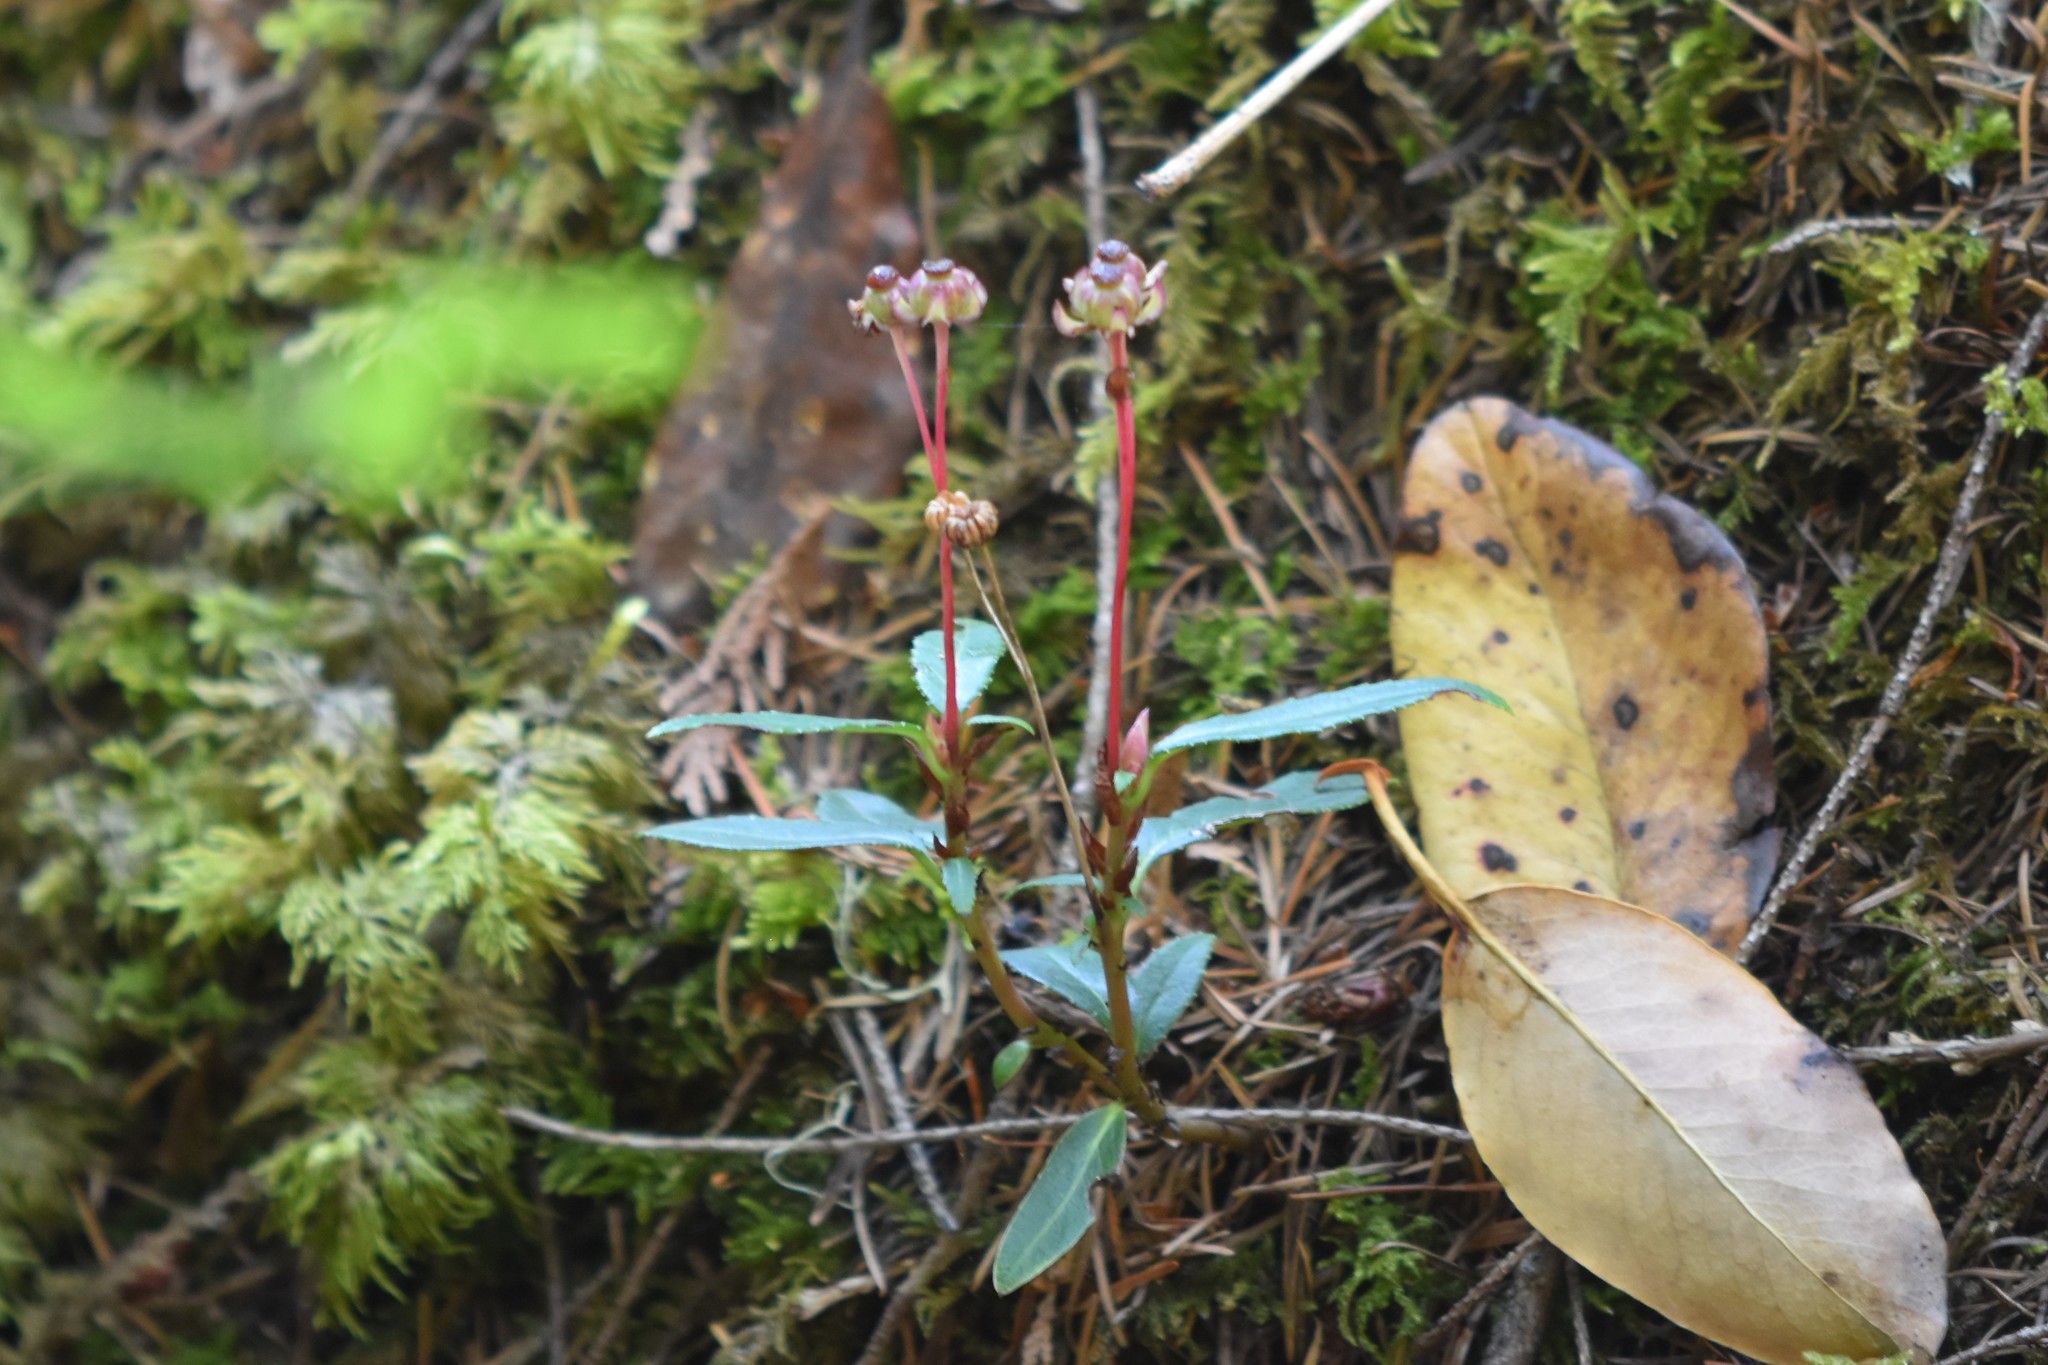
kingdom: Plantae
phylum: Tracheophyta
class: Magnoliopsida
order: Ericales
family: Ericaceae
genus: Chimaphila
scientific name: Chimaphila menziesii
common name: Menzies' pipsissewa
